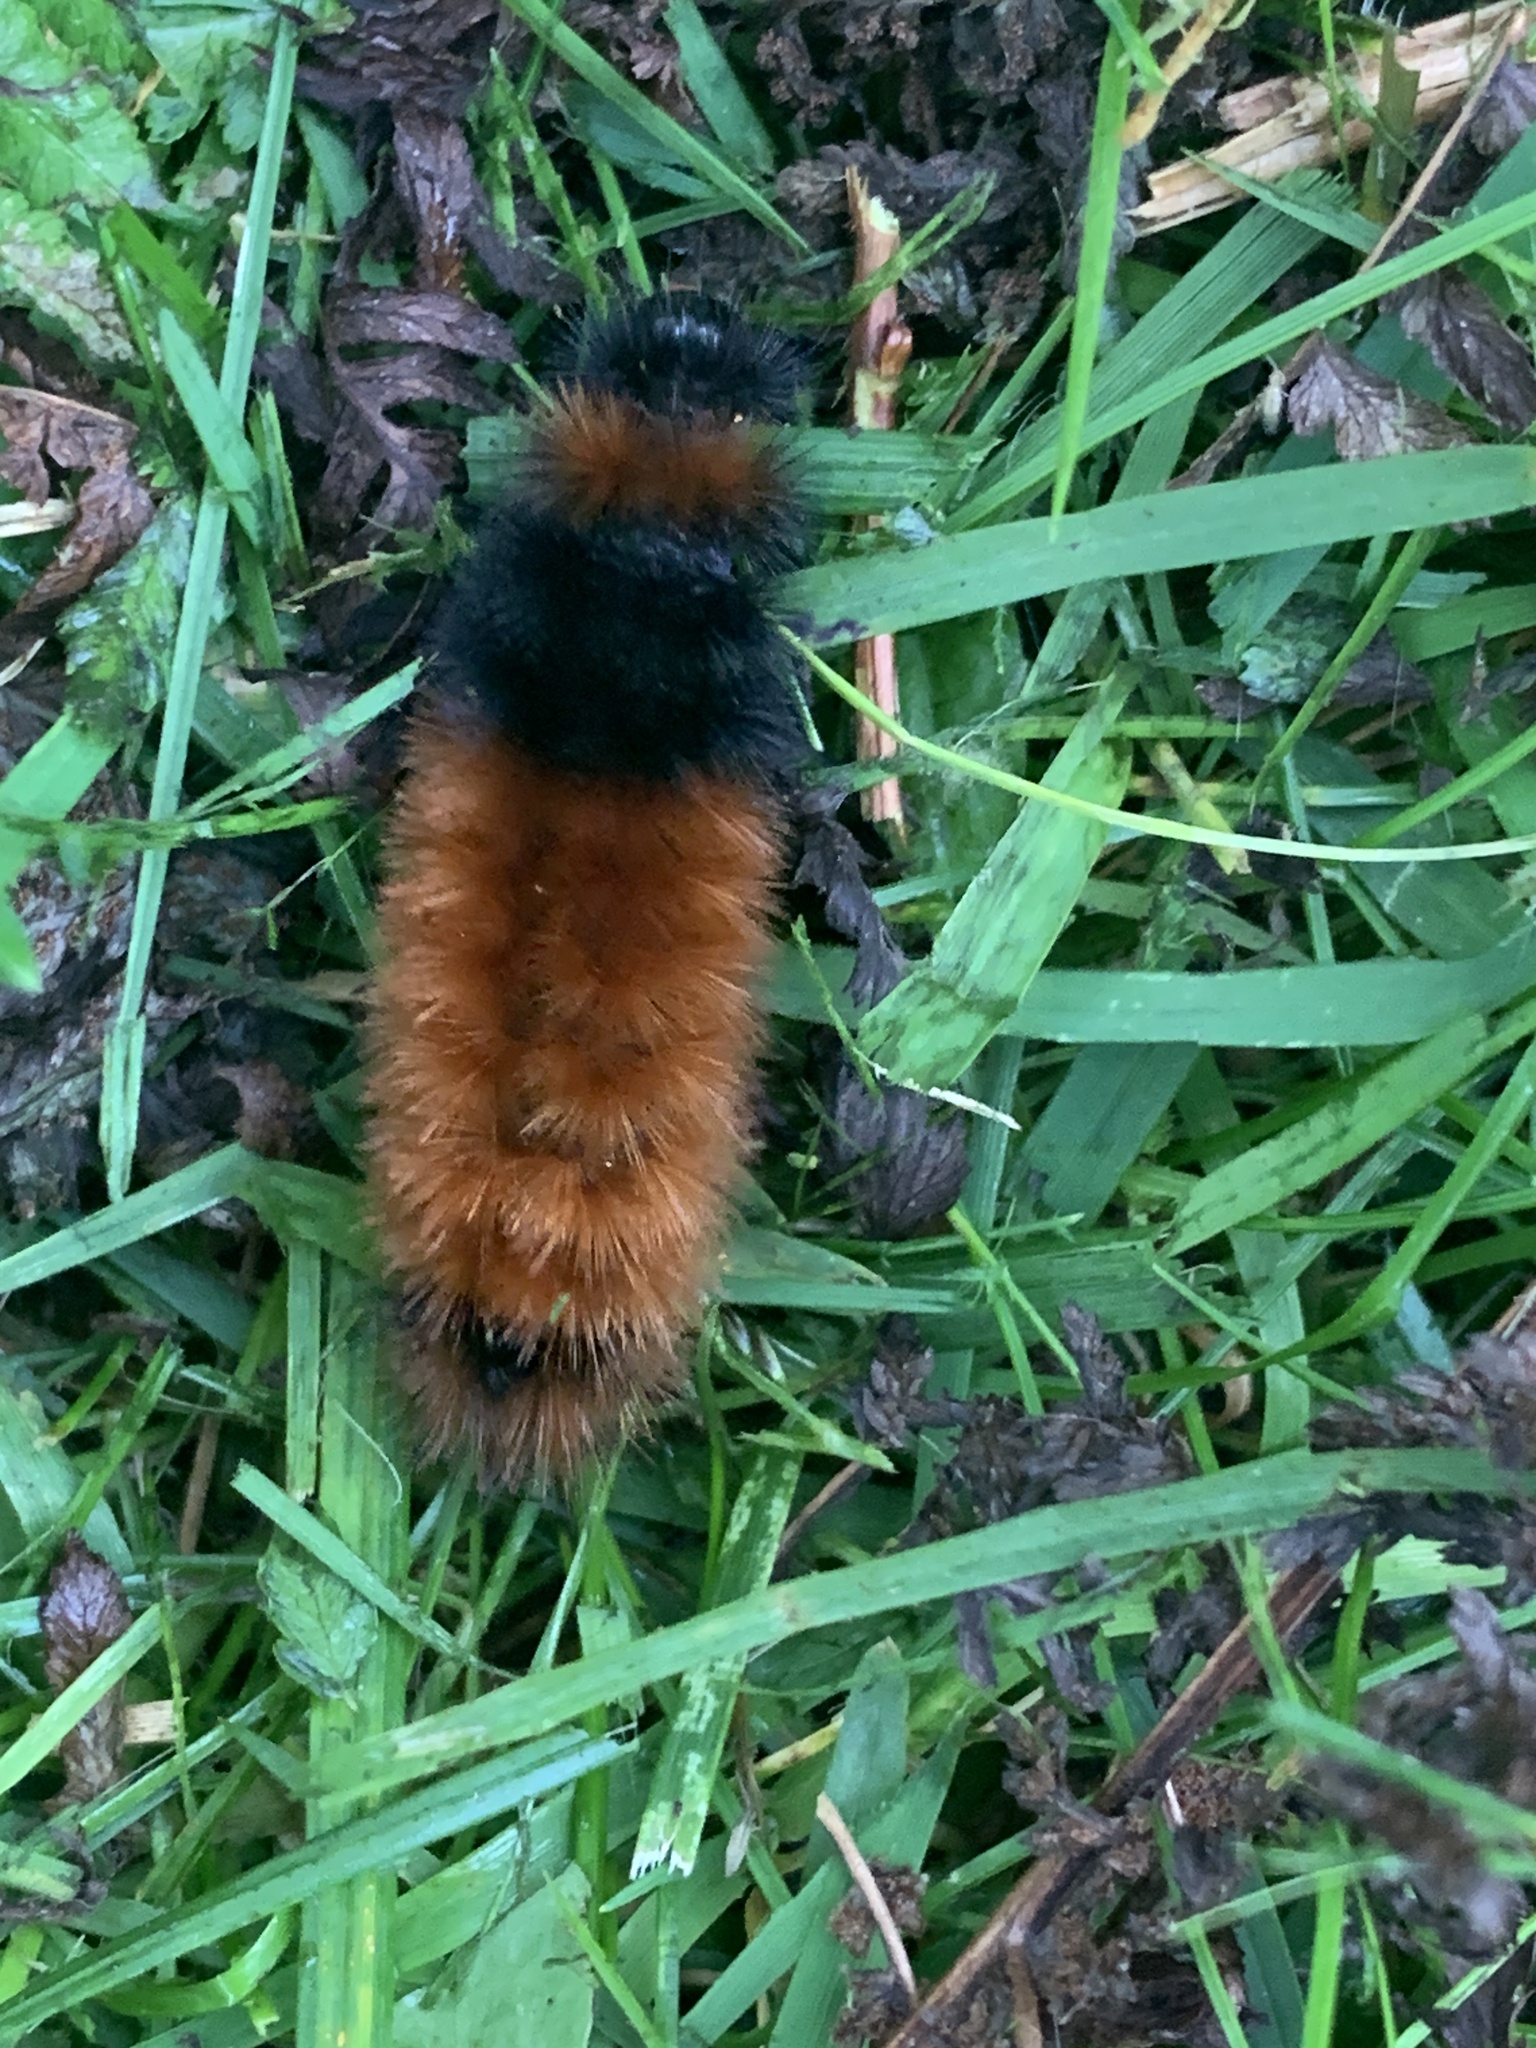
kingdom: Animalia
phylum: Arthropoda
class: Insecta
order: Lepidoptera
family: Erebidae
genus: Pyrrharctia
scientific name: Pyrrharctia isabella
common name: Isabella tiger moth
